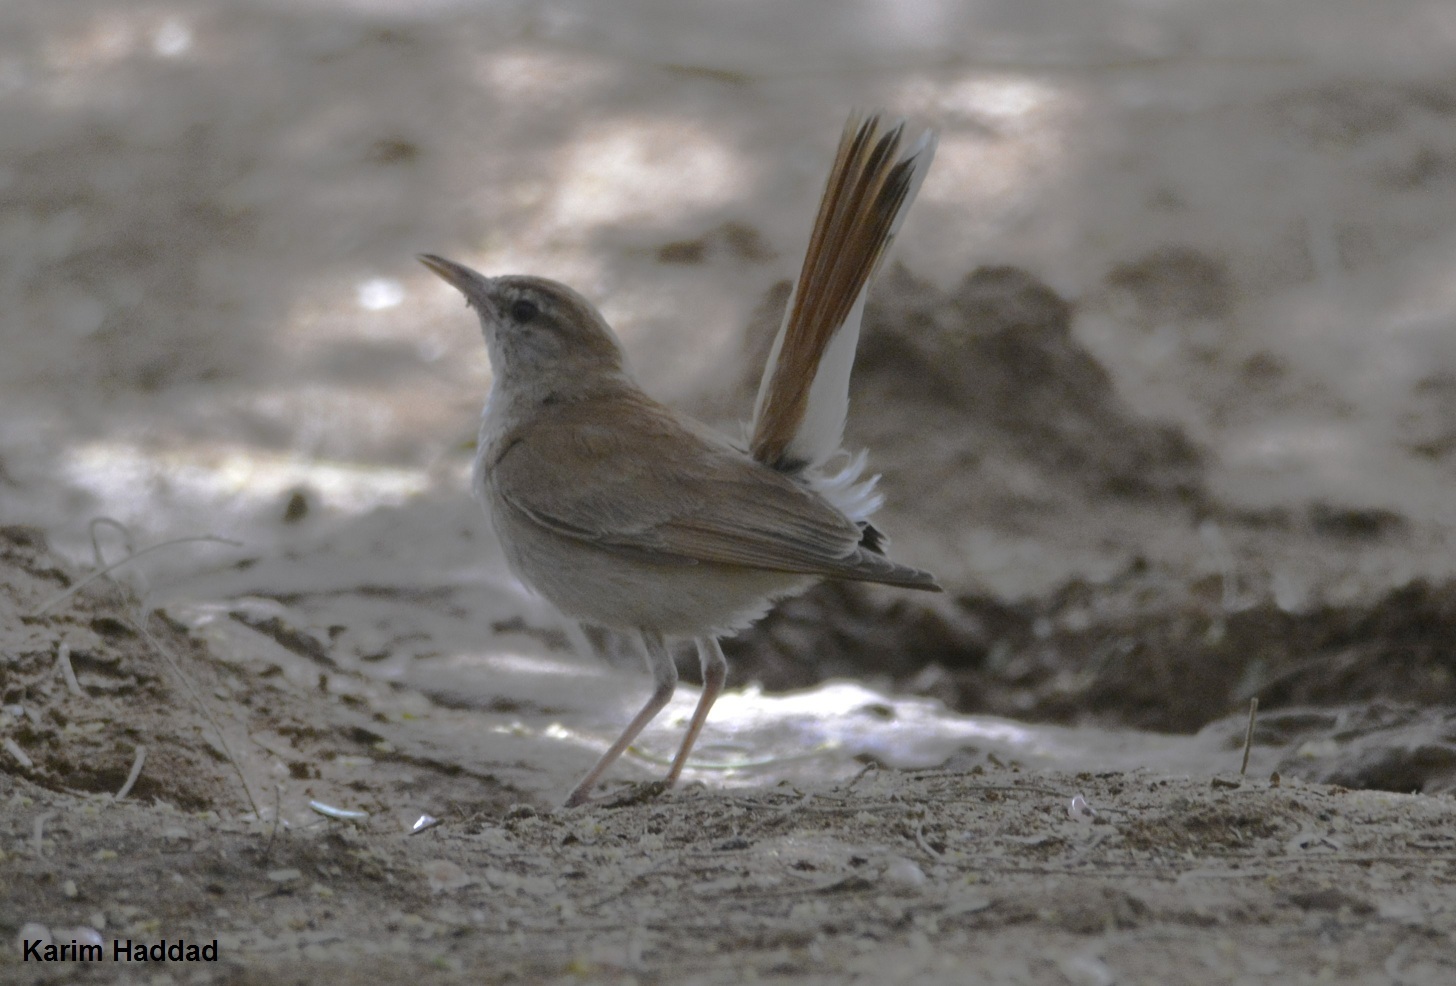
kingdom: Animalia
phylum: Chordata
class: Aves
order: Passeriformes
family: Muscicapidae
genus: Erythropygia
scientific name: Erythropygia galactotes
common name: Rufous-tailed scrub robin
